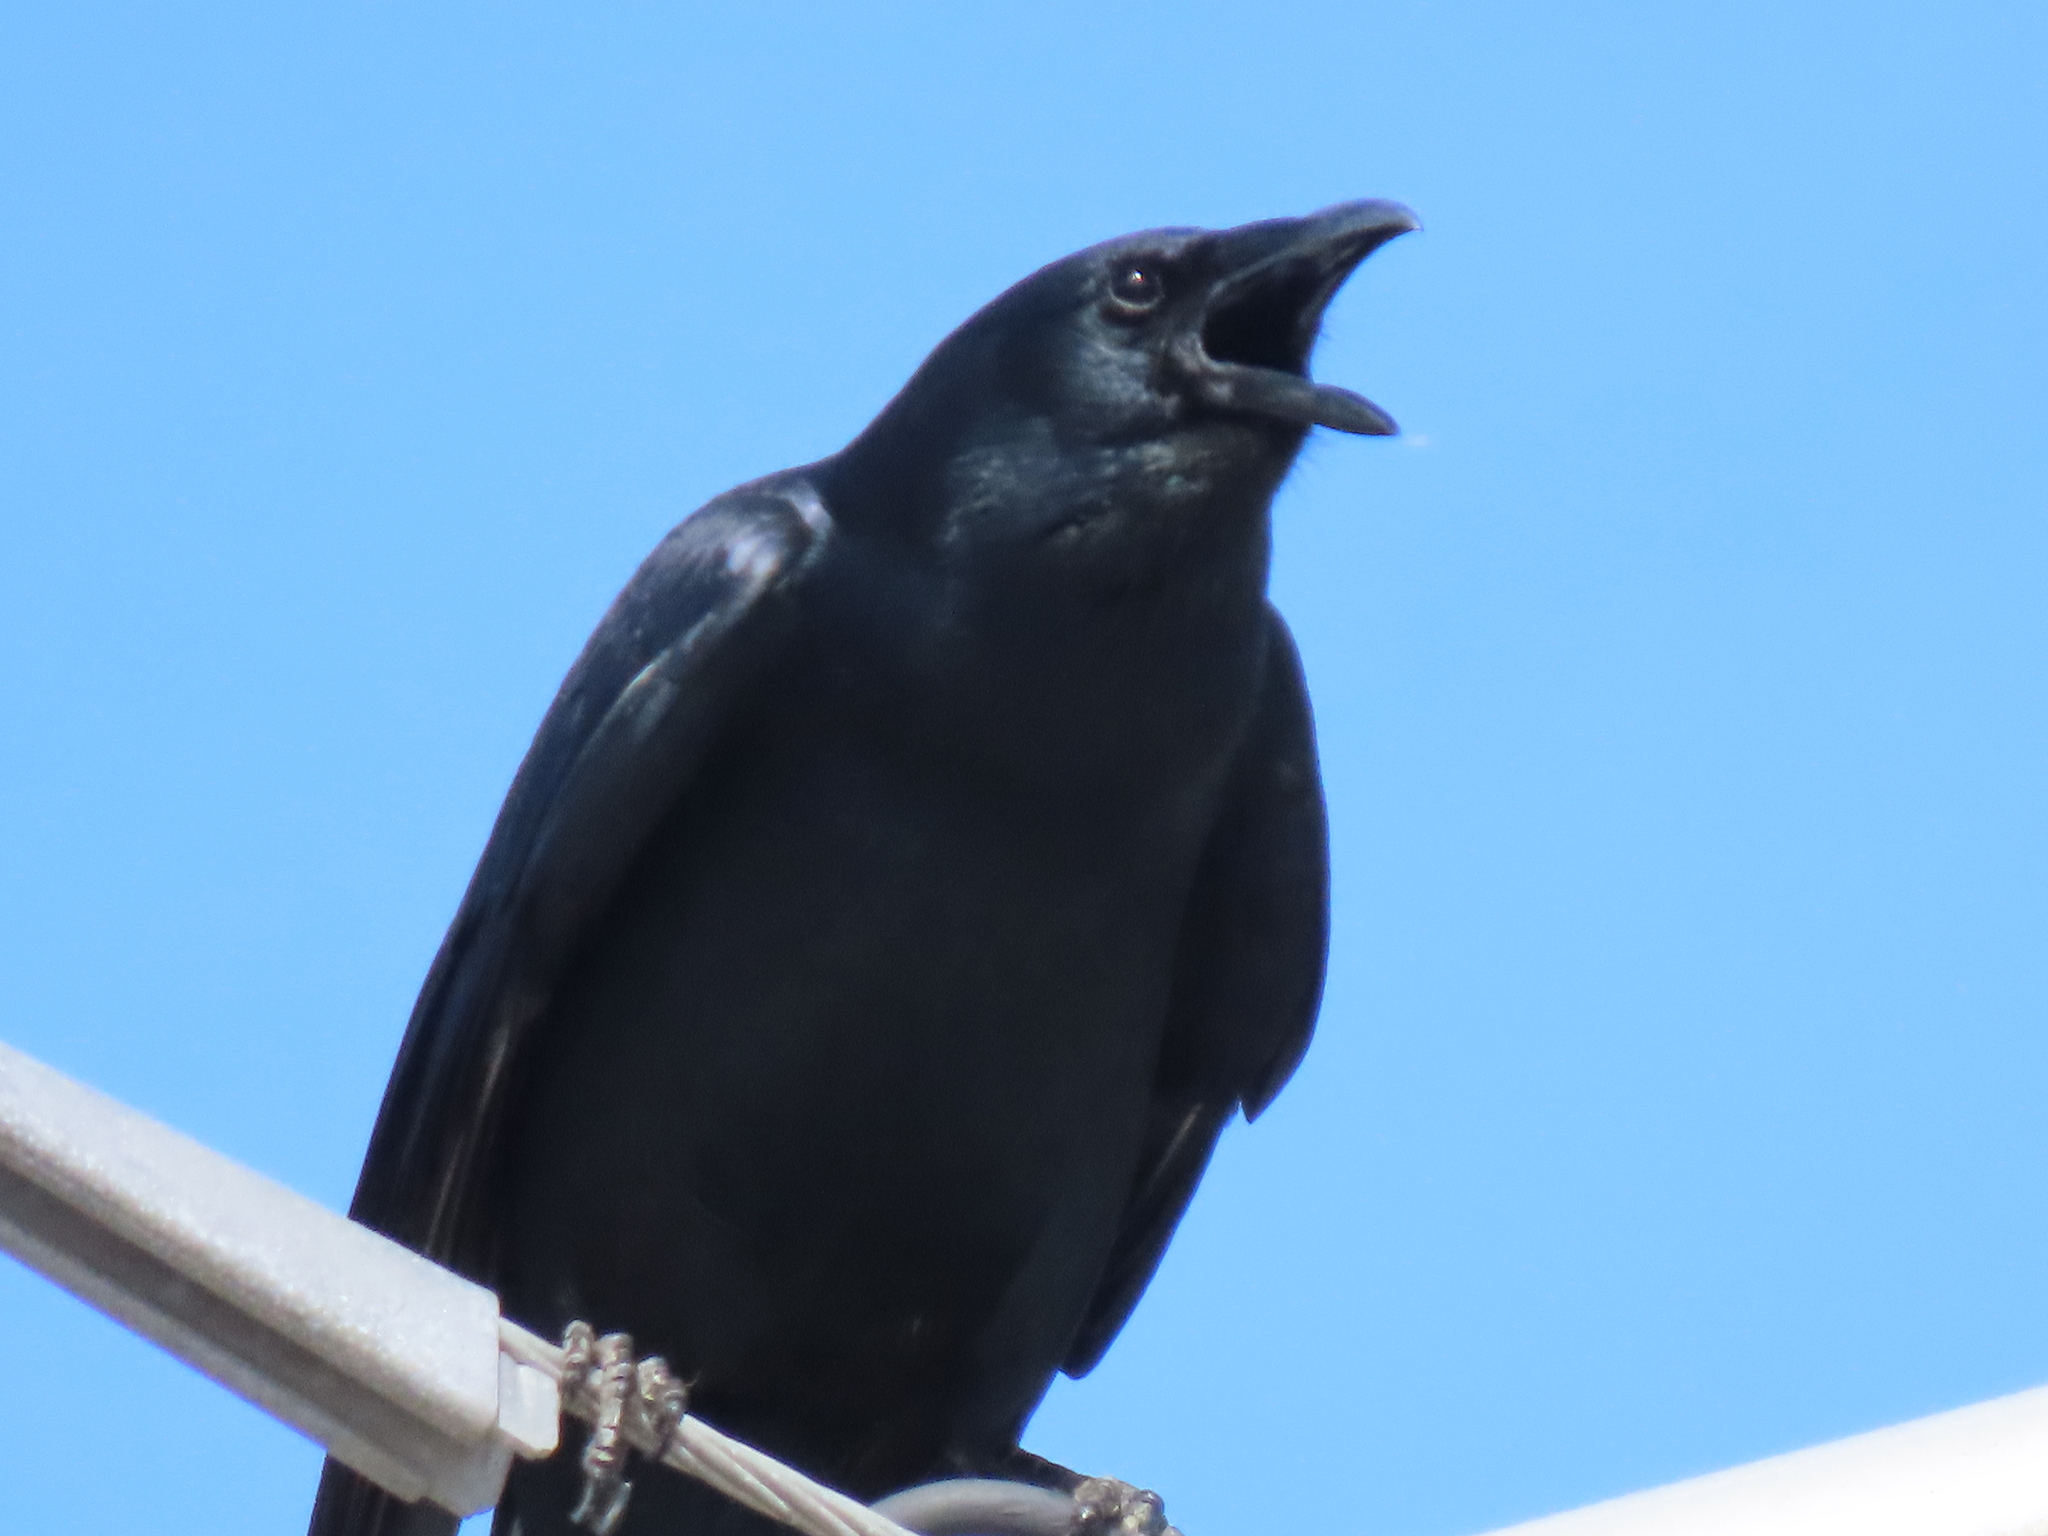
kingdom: Animalia
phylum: Chordata
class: Aves
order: Passeriformes
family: Corvidae
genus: Corvus
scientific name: Corvus brachyrhynchos
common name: American crow
